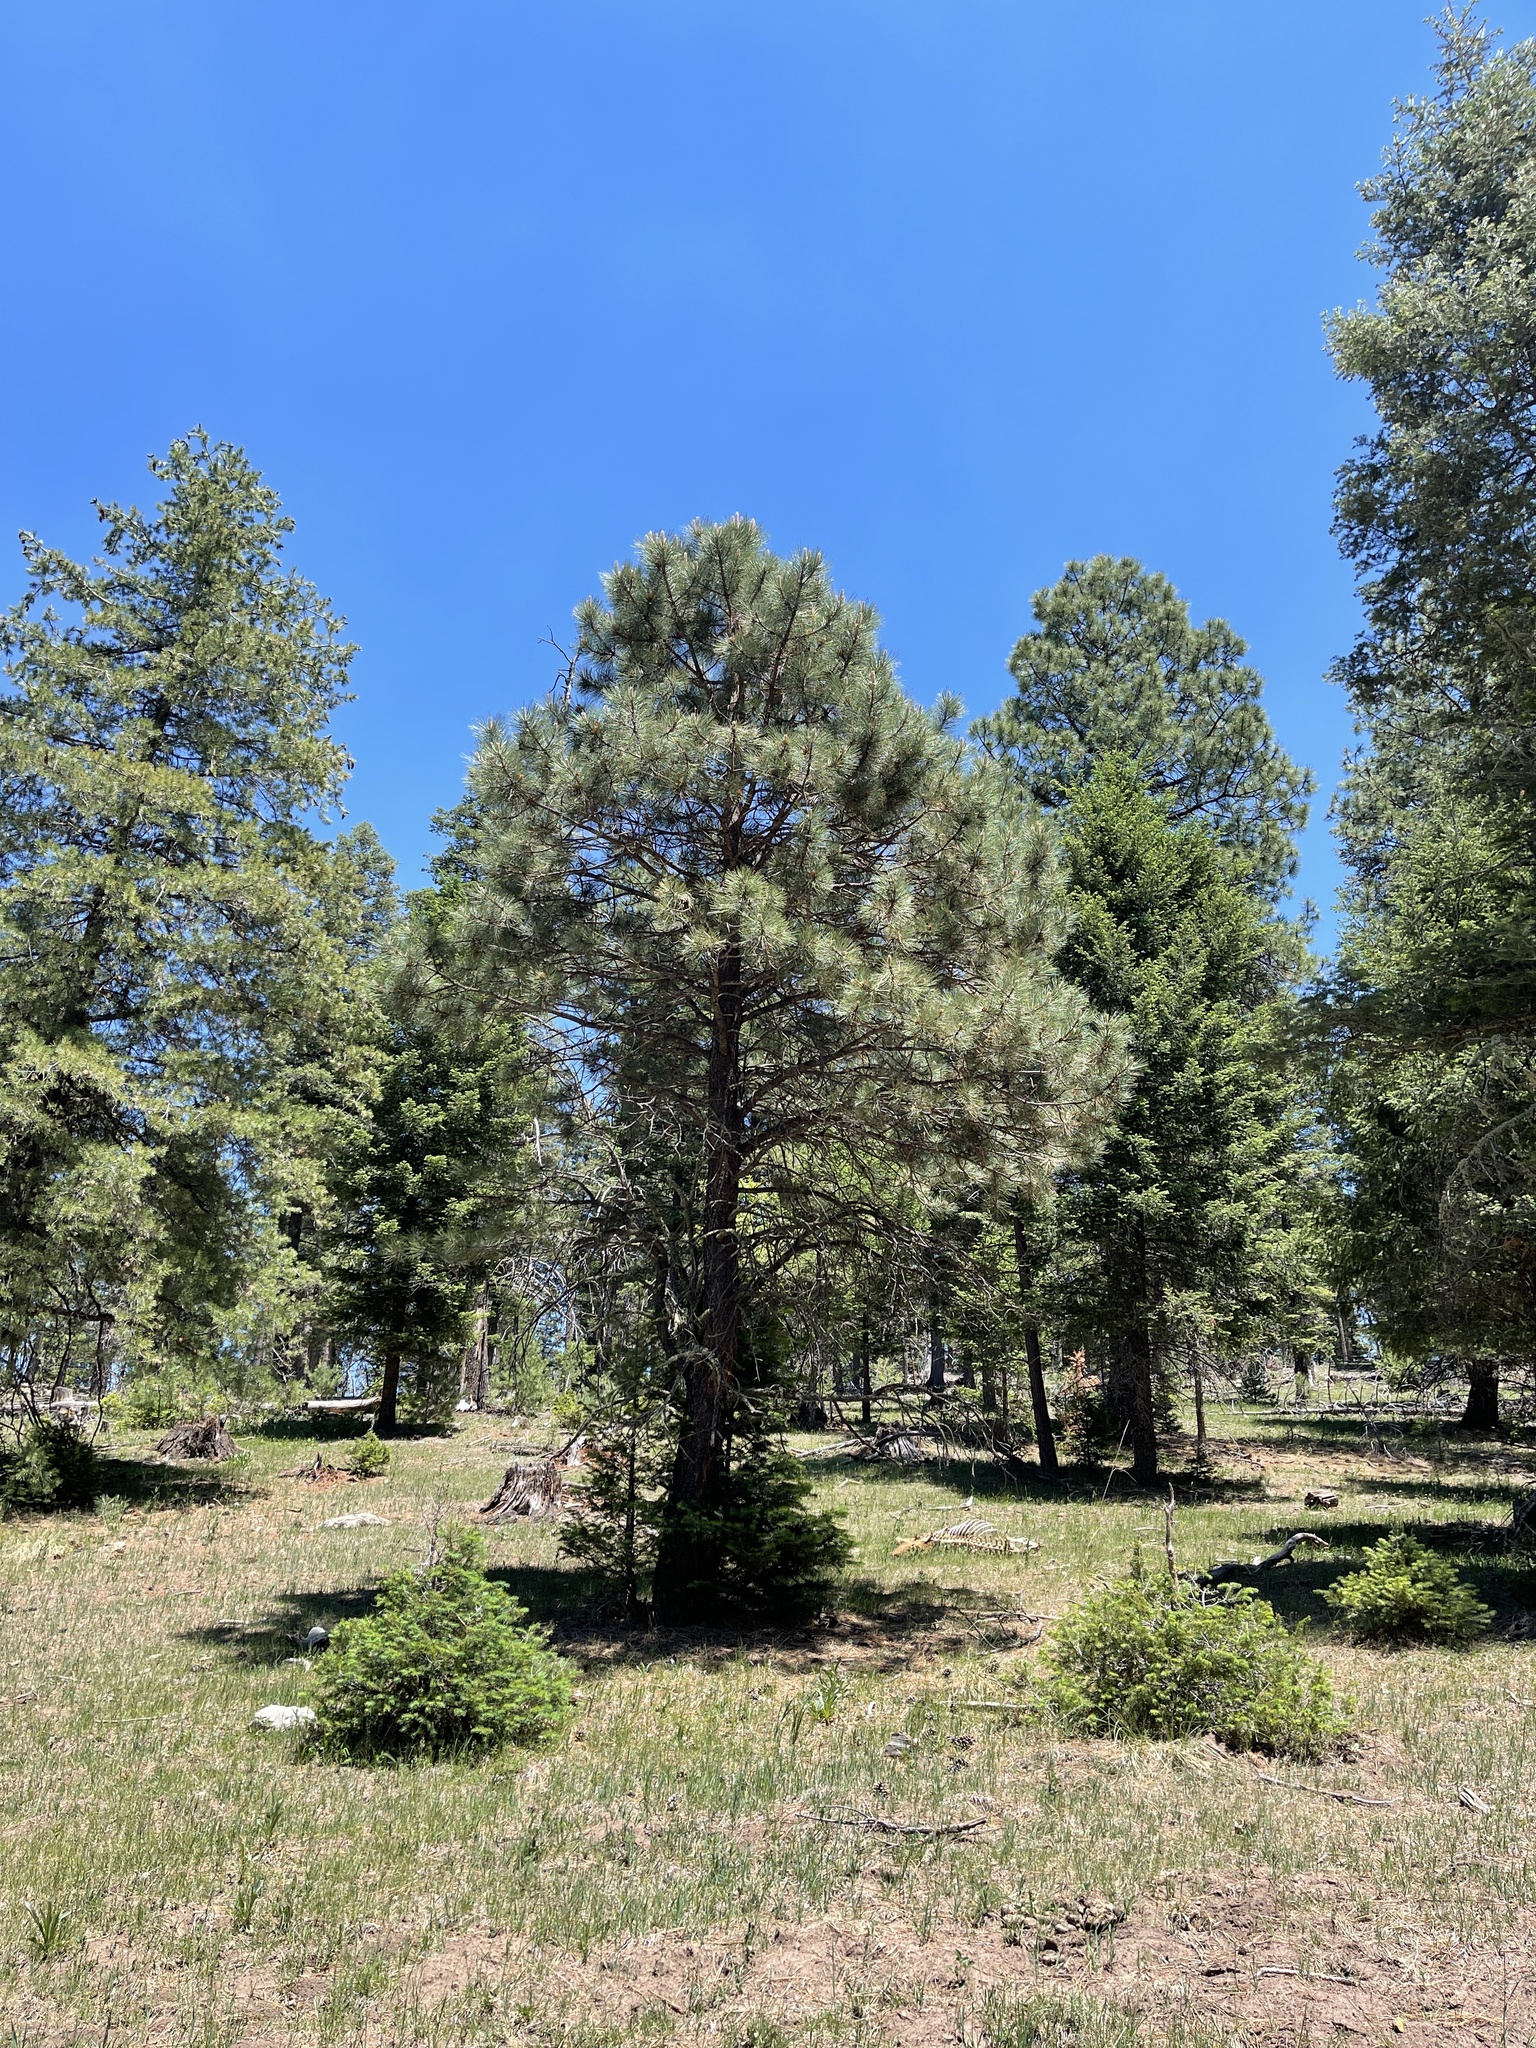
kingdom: Plantae
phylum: Tracheophyta
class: Pinopsida
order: Pinales
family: Pinaceae
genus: Pinus
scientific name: Pinus ponderosa
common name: Western yellow-pine
